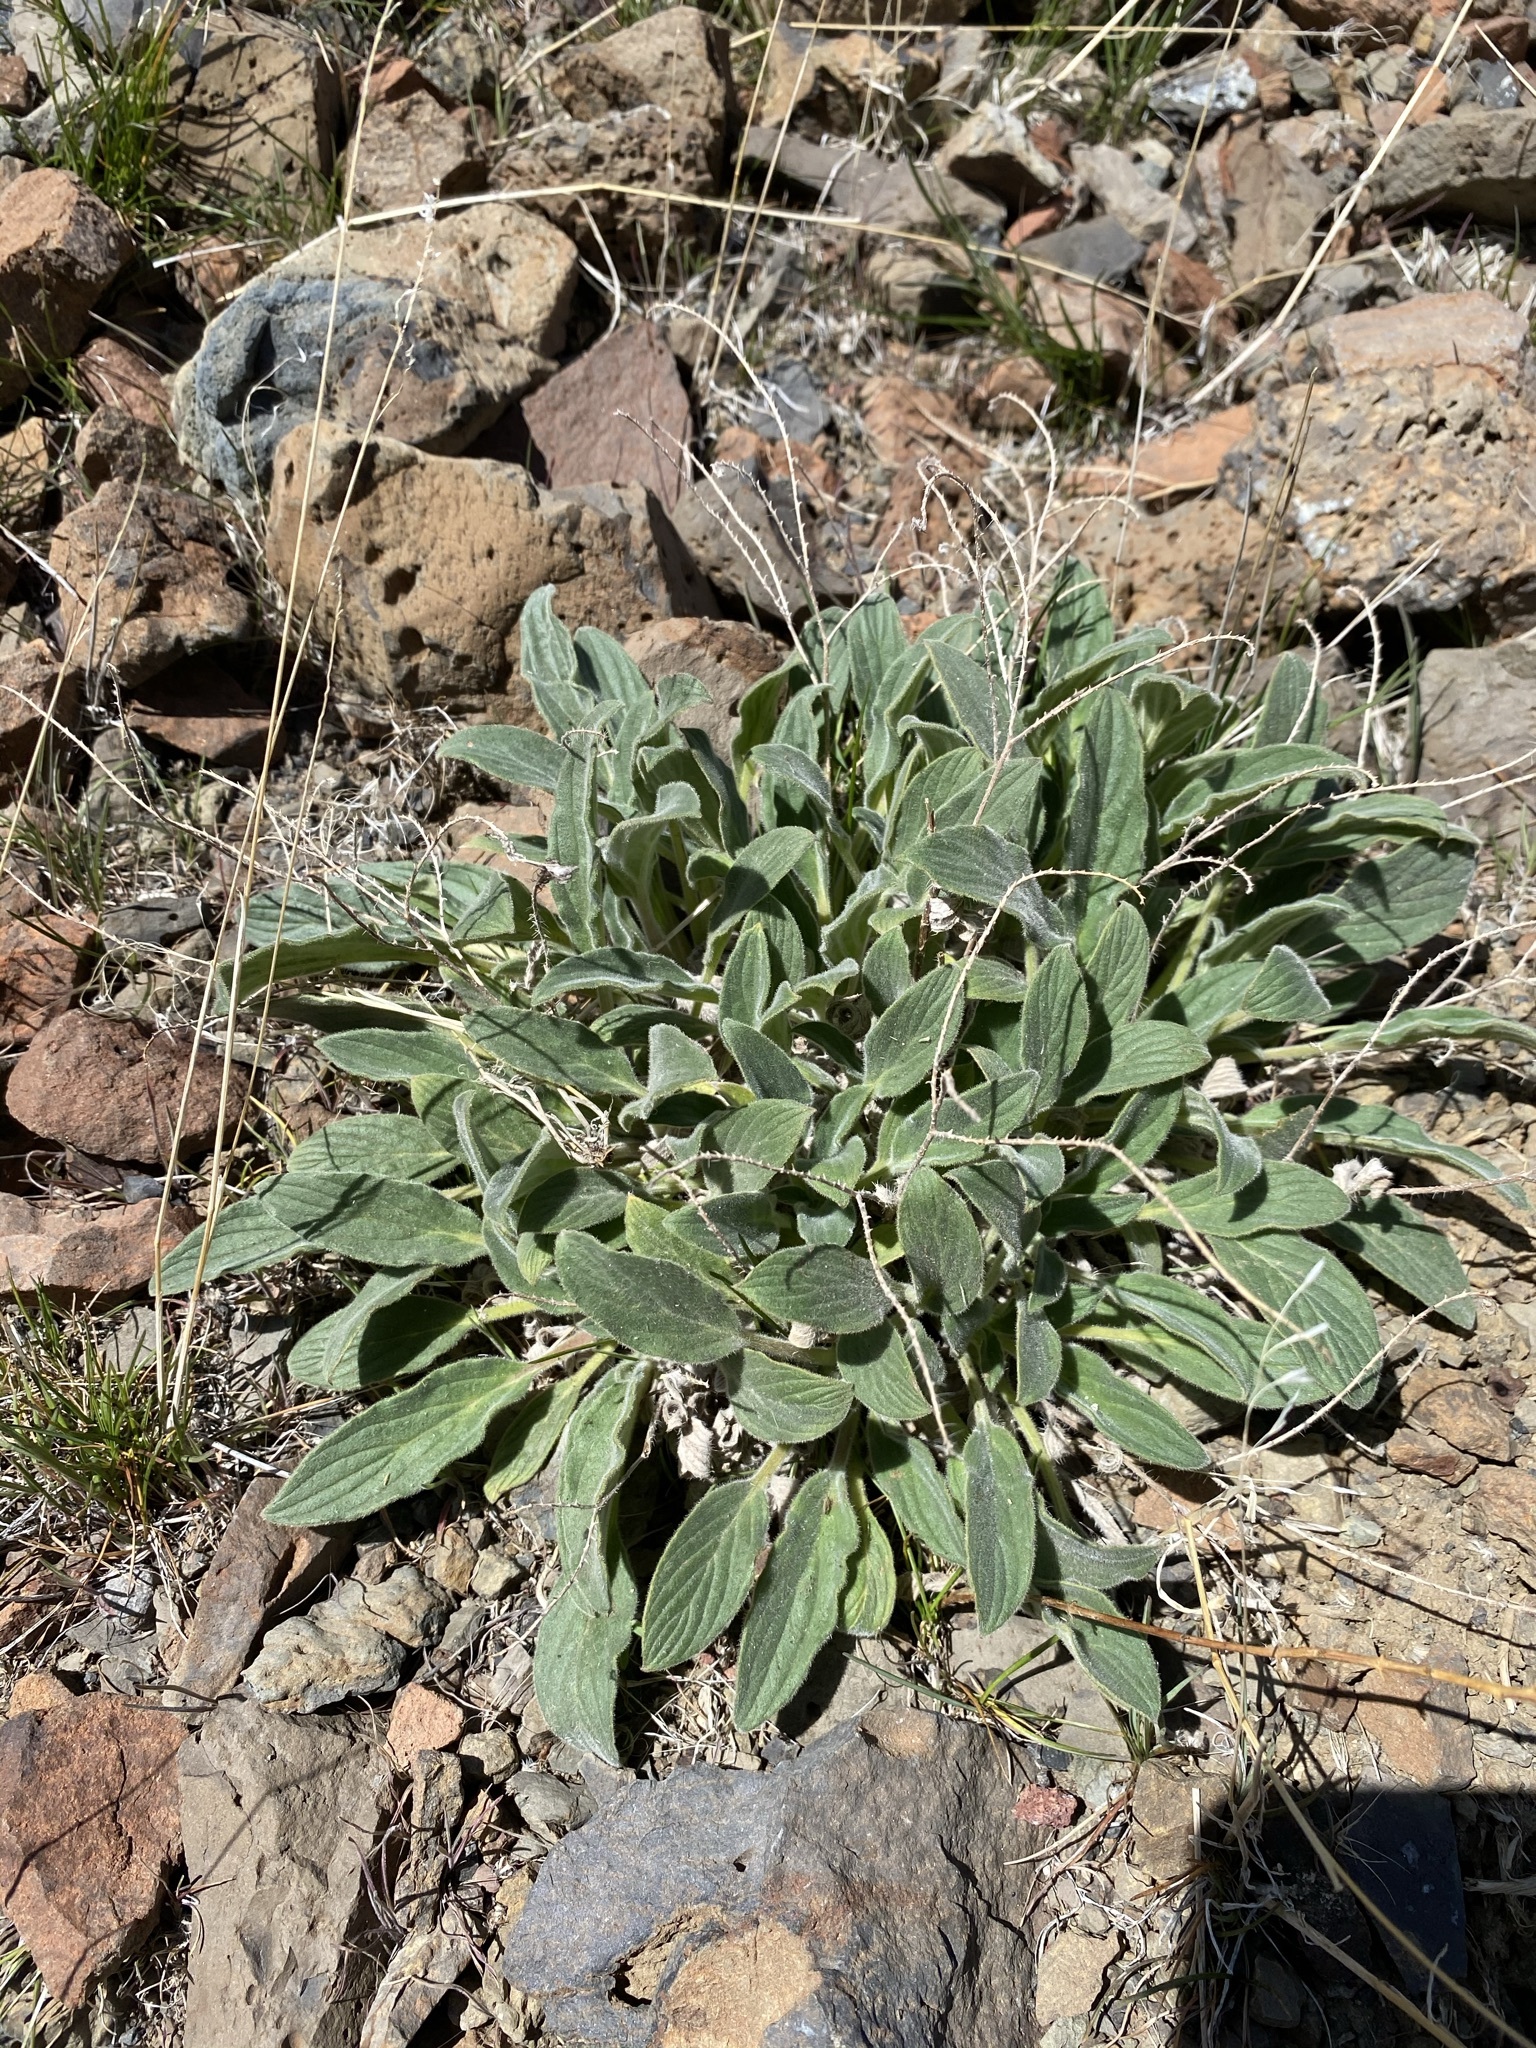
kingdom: Plantae
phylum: Tracheophyta
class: Magnoliopsida
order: Boraginales
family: Hydrophyllaceae
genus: Phacelia
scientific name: Phacelia hastata
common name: Silver-leaved phacelia
